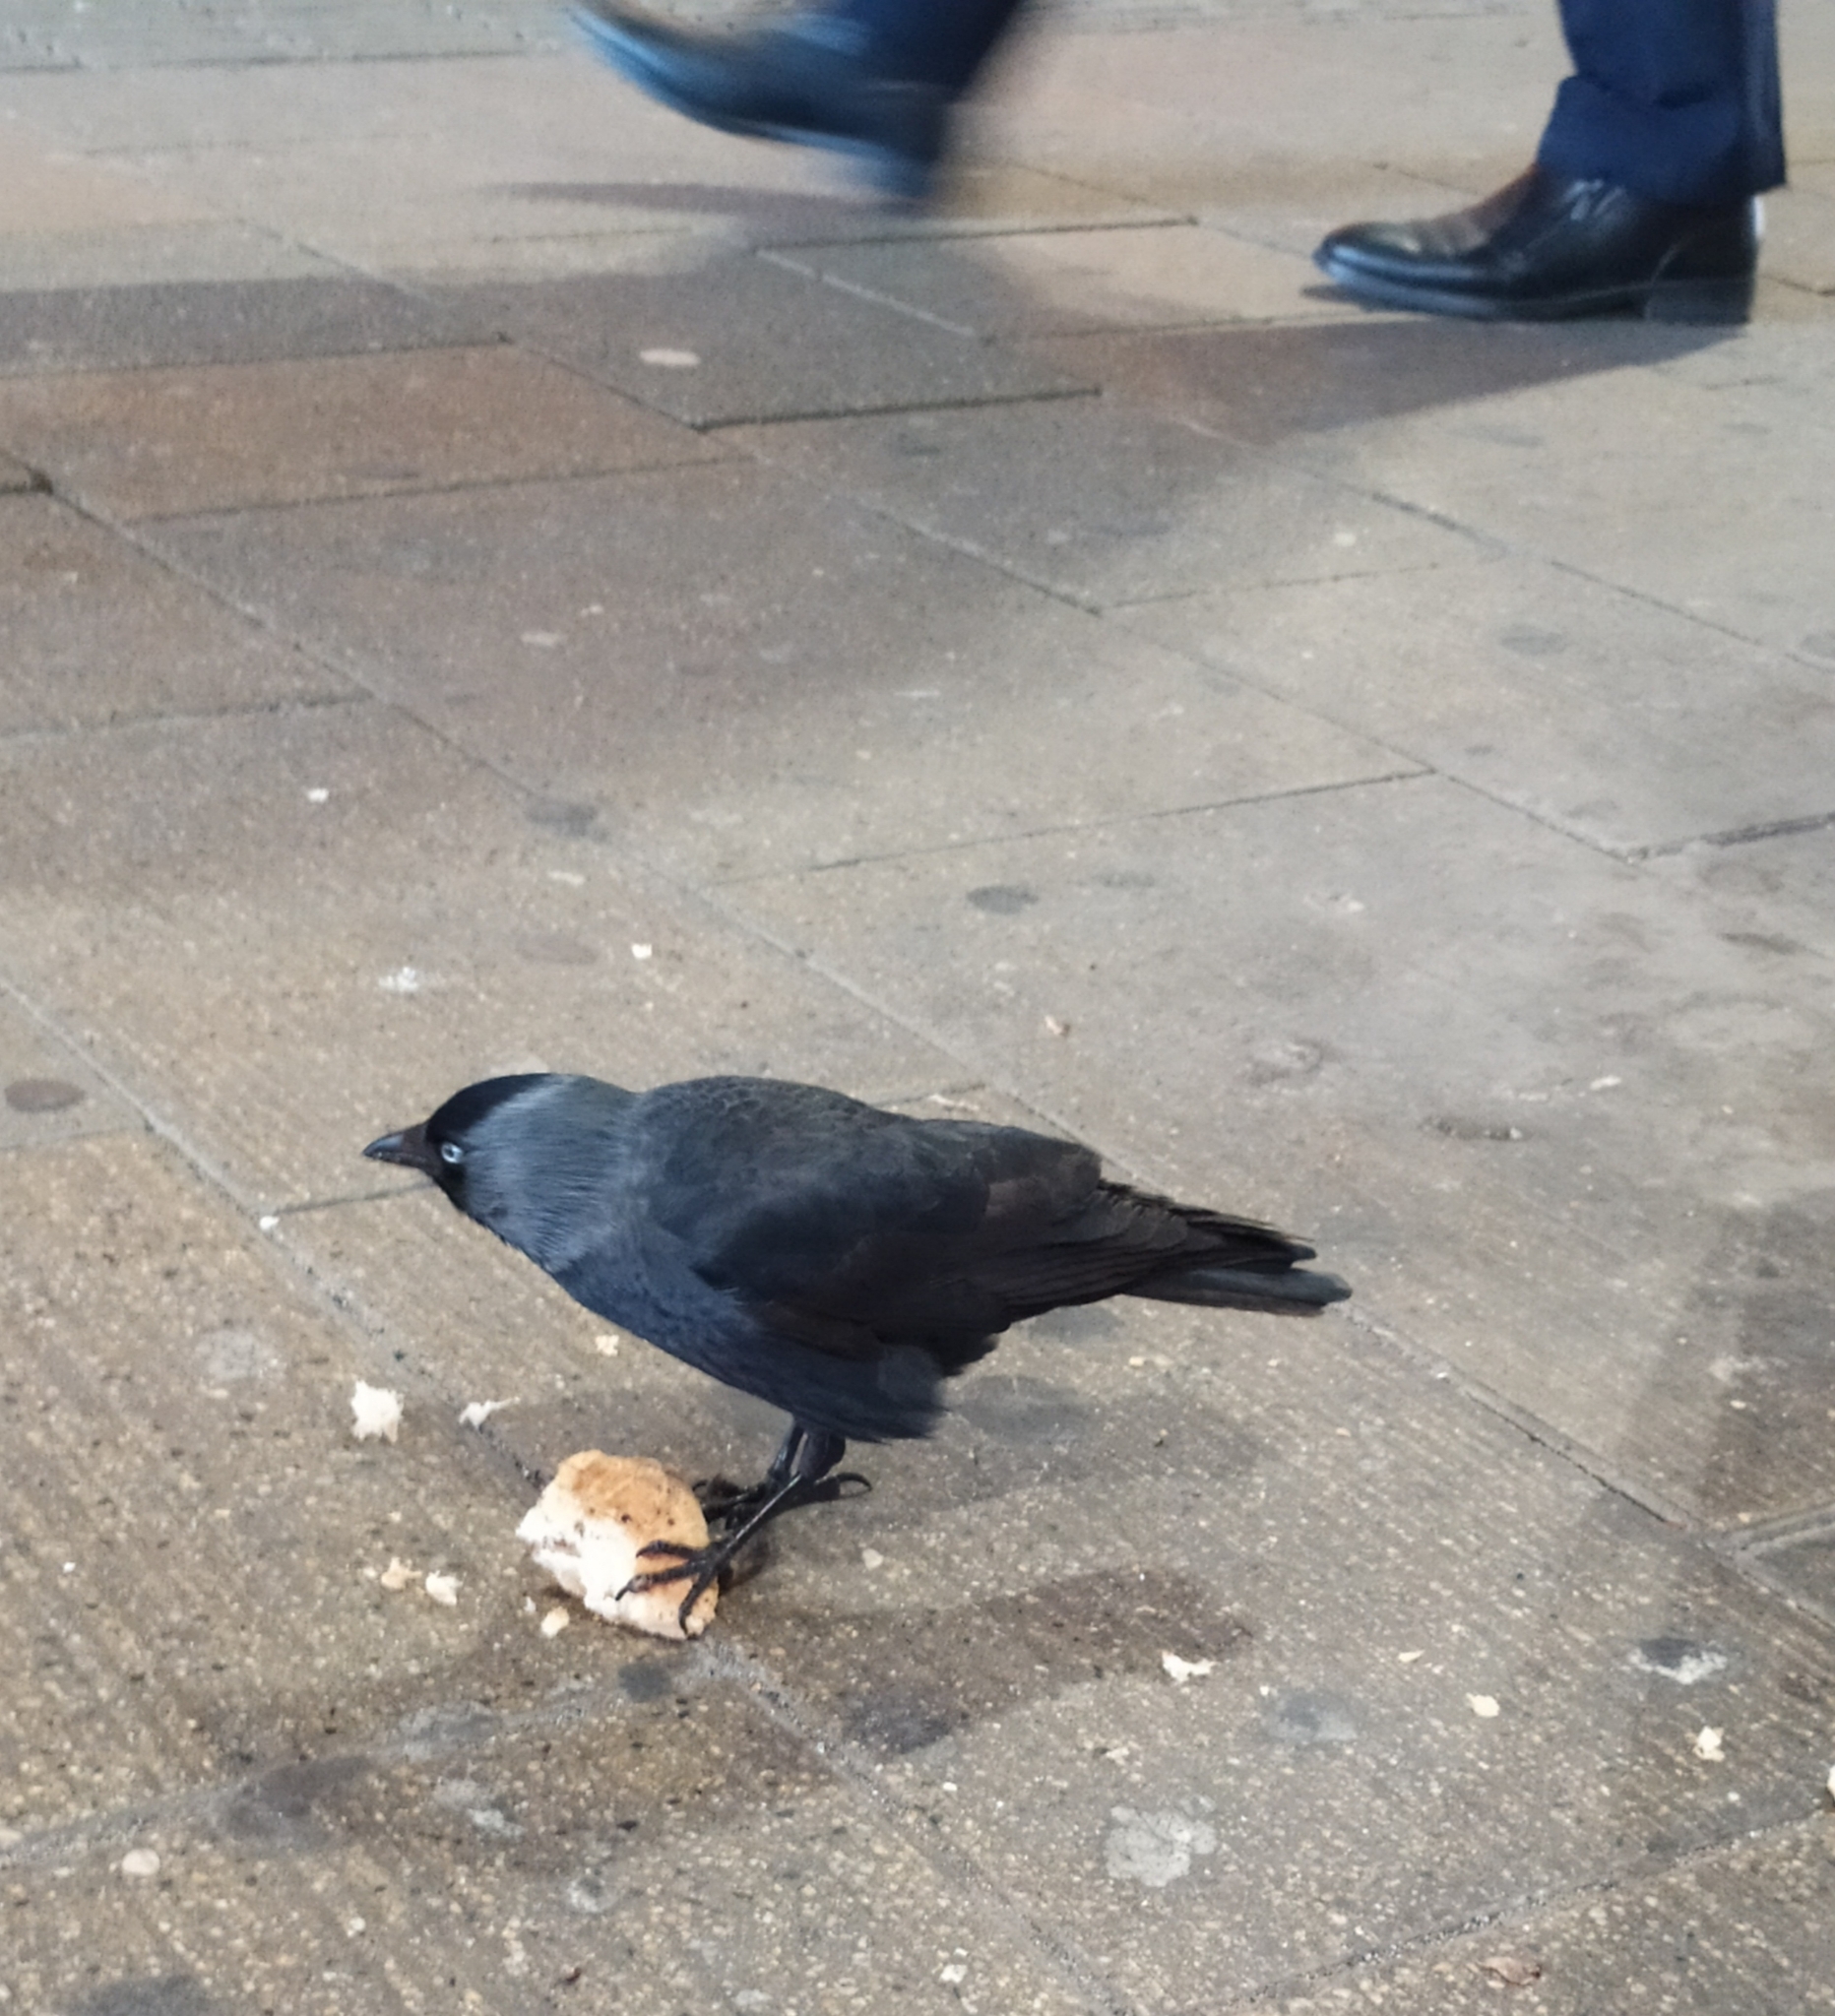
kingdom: Animalia
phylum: Chordata
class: Aves
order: Passeriformes
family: Corvidae
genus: Coloeus
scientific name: Coloeus monedula
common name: Western jackdaw
